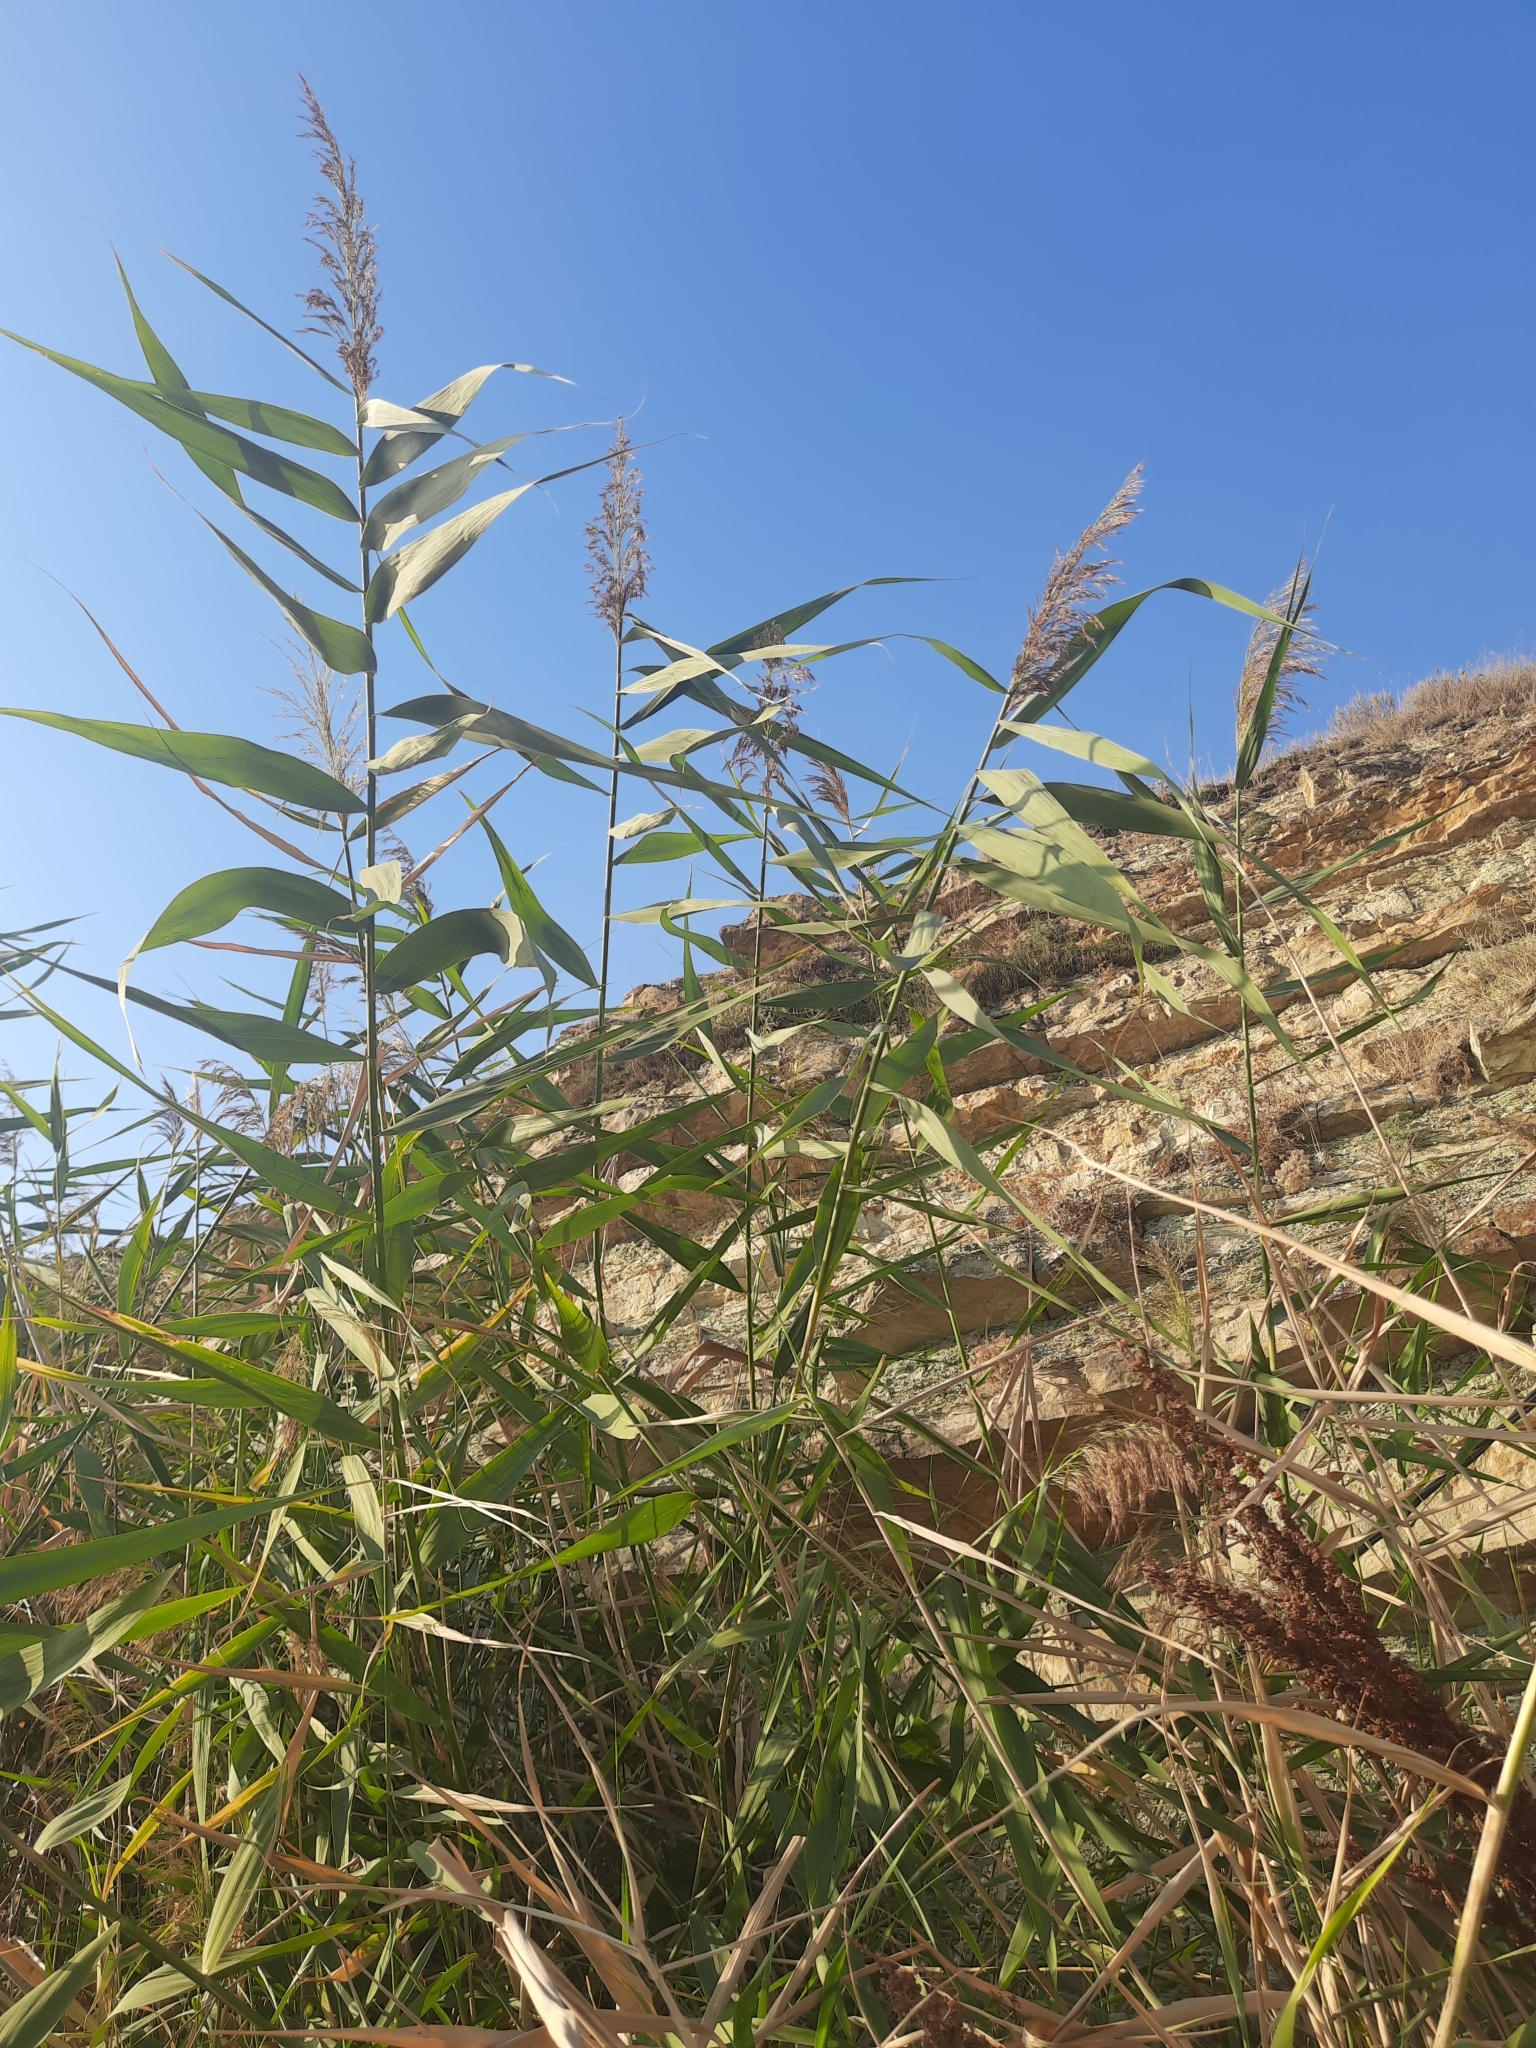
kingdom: Plantae
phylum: Tracheophyta
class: Liliopsida
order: Poales
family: Poaceae
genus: Phragmites
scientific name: Phragmites australis
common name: Common reed
